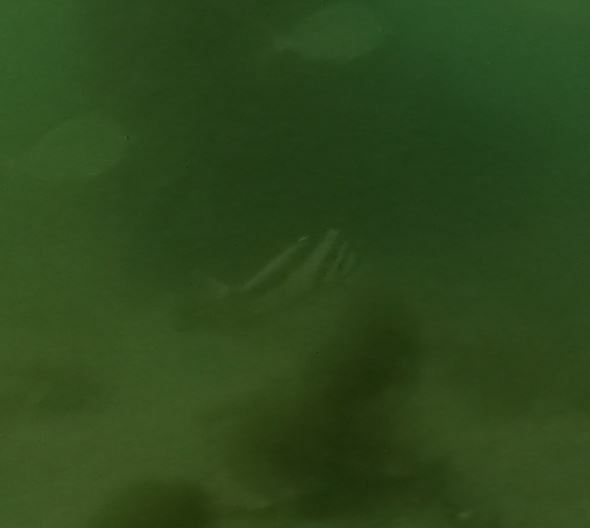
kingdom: Animalia
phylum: Chordata
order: Perciformes
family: Cheilodactylidae
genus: Cheilodactylus
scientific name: Cheilodactylus vestitus
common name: Crested morwong
